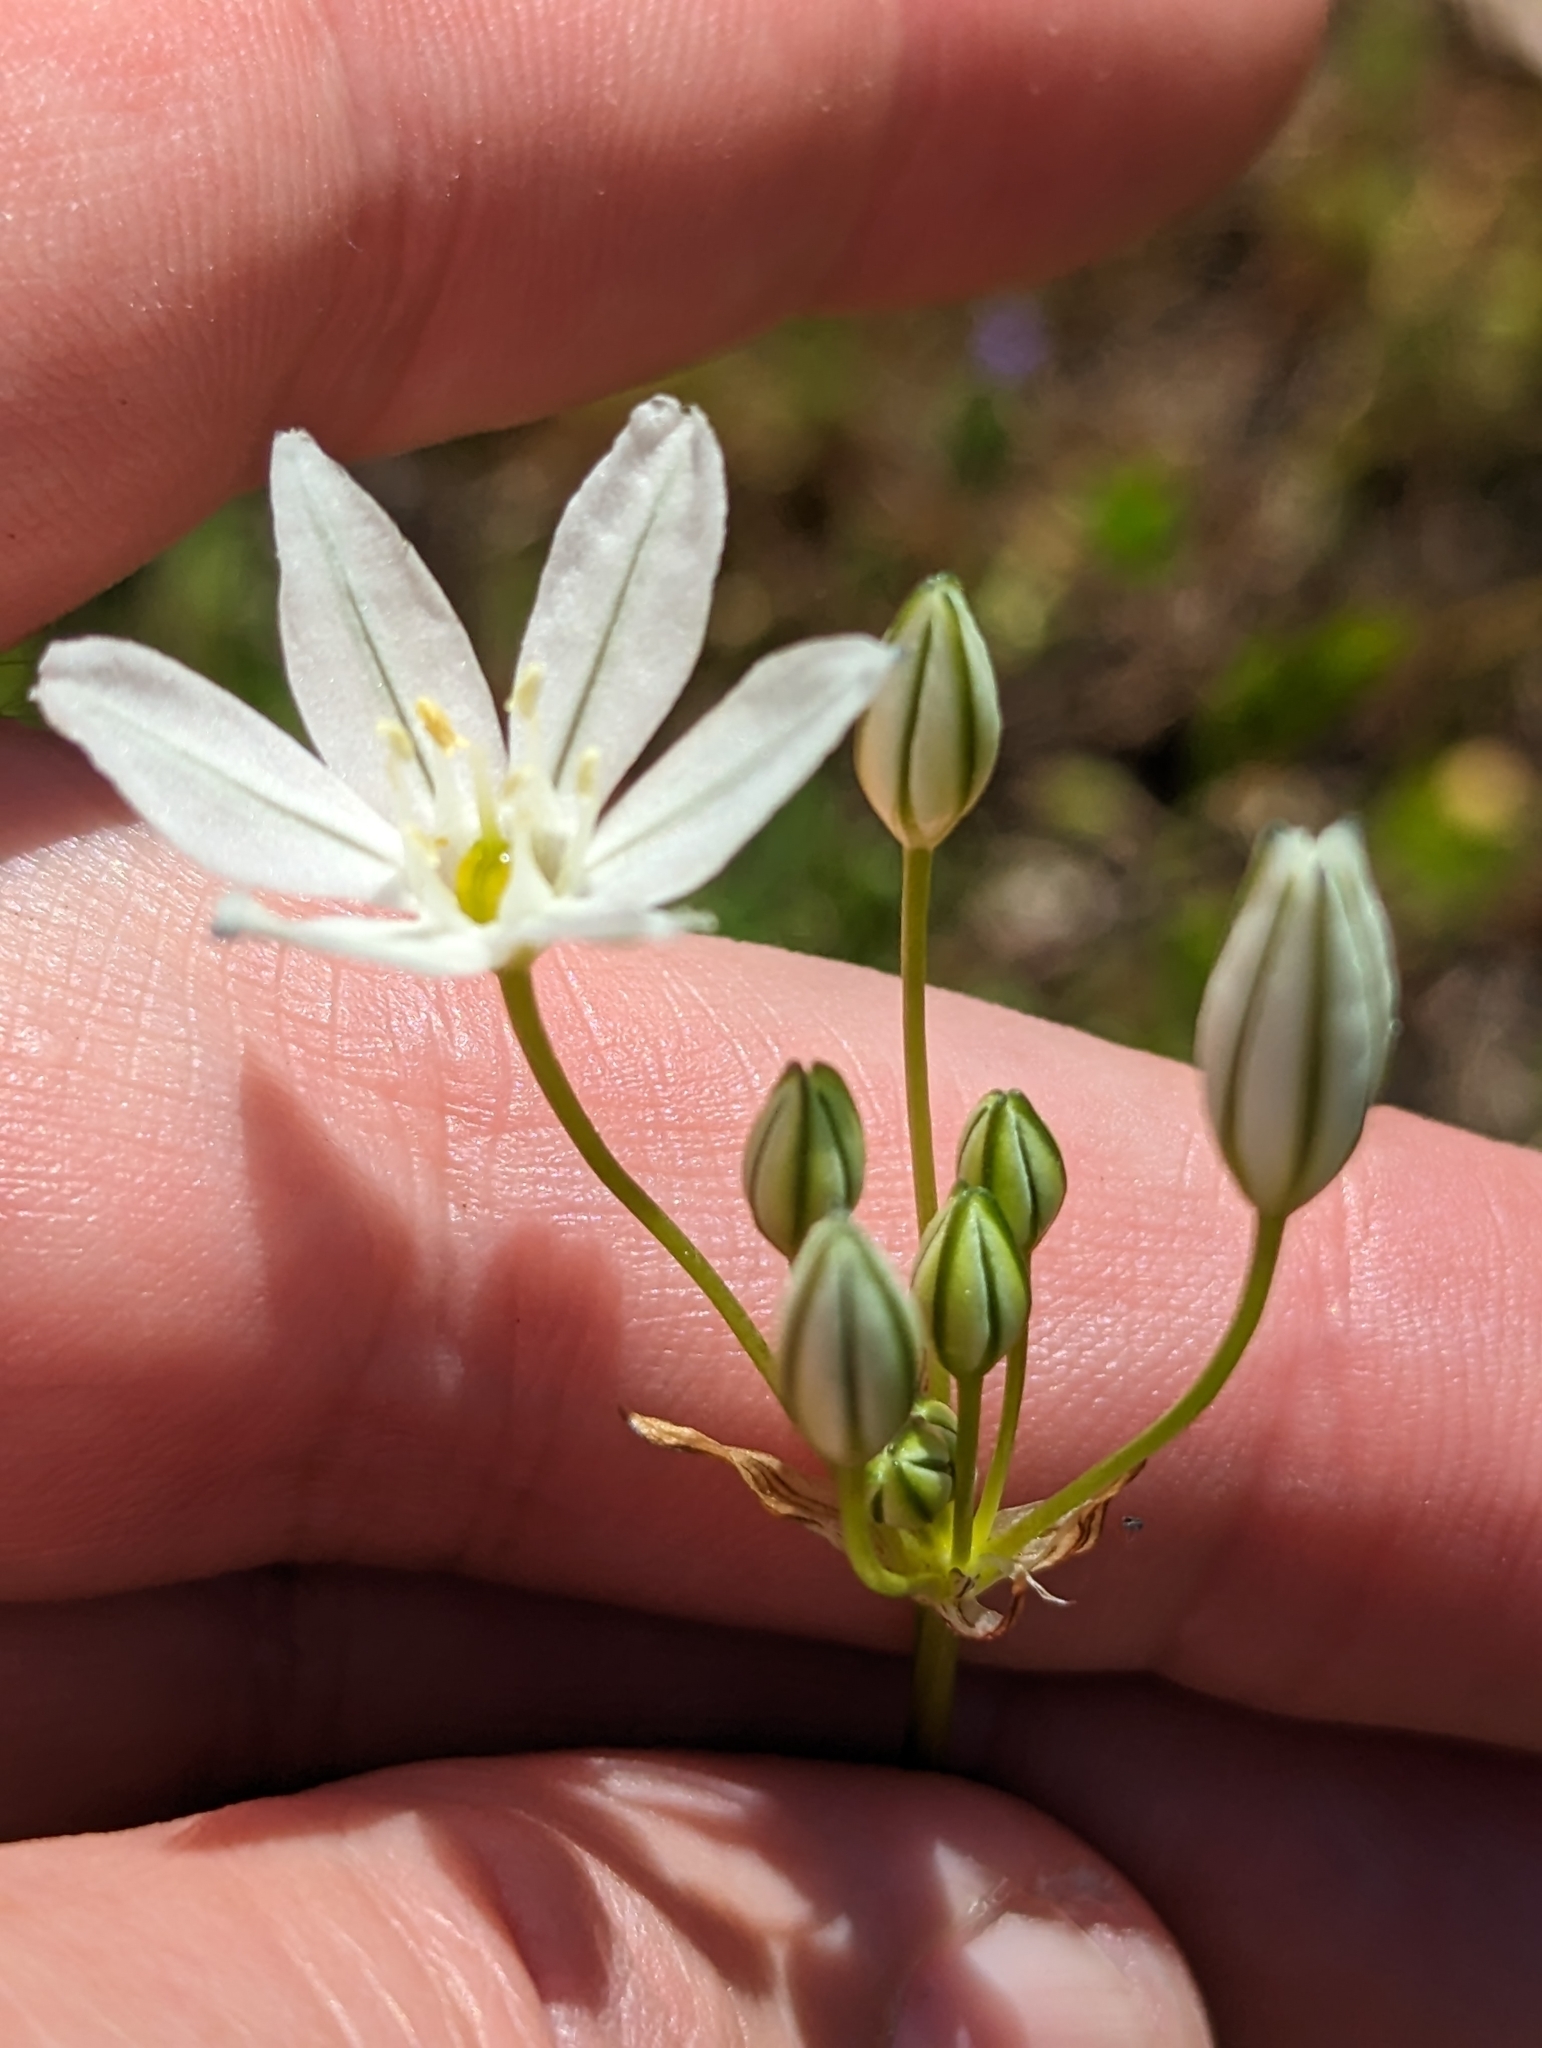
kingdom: Plantae
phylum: Tracheophyta
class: Liliopsida
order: Asparagales
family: Asparagaceae
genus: Triteleia
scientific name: Triteleia hyacinthina
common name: White brodiaea
